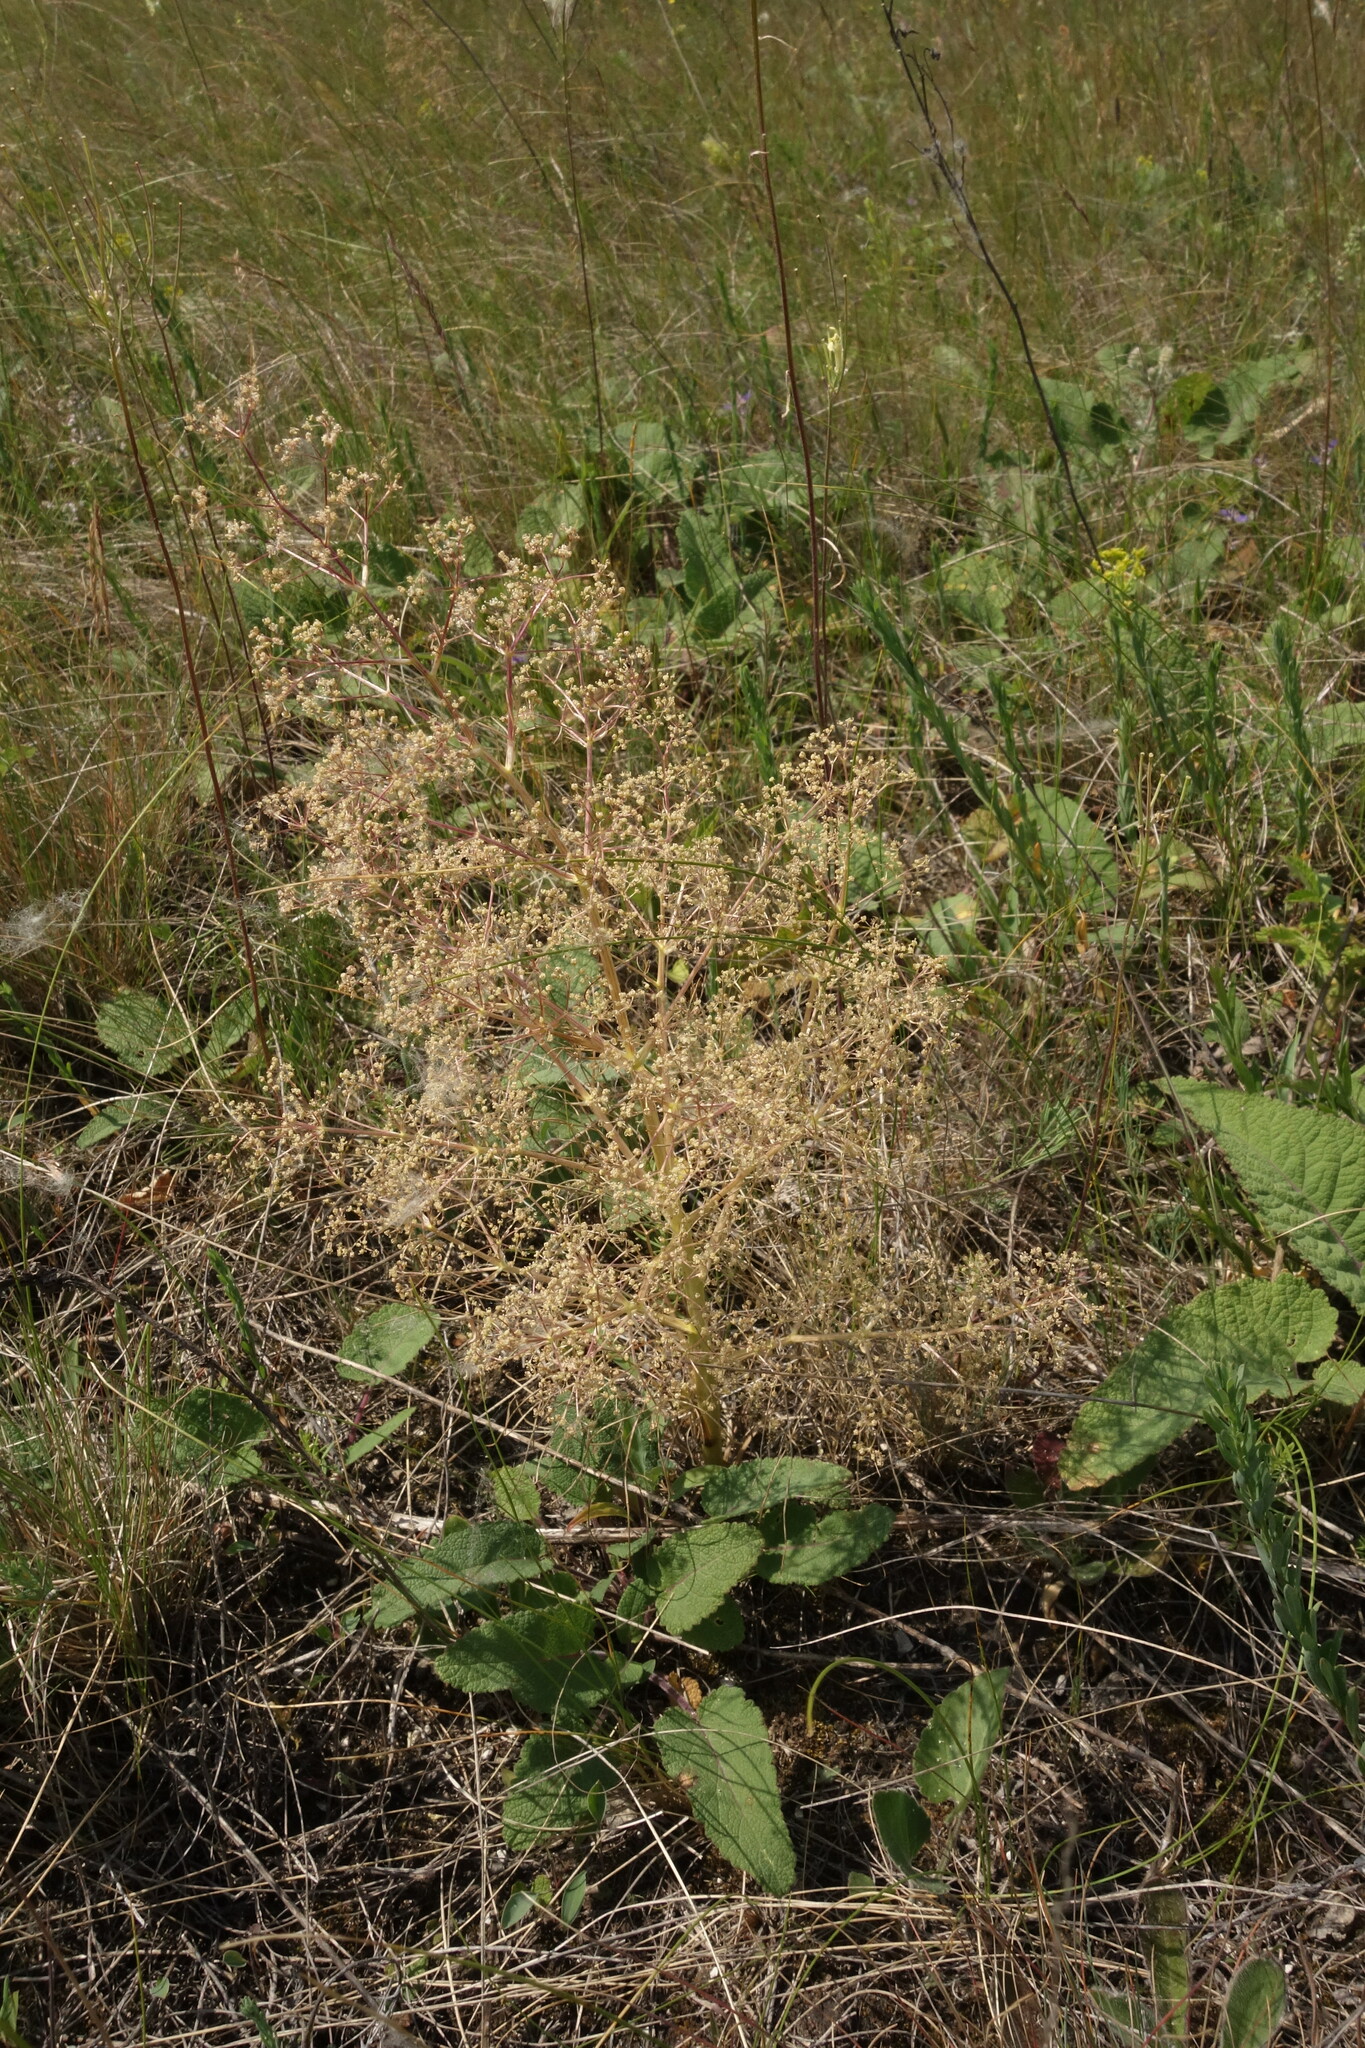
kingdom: Plantae
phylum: Tracheophyta
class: Magnoliopsida
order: Apiales
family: Apiaceae
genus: Trinia
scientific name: Trinia multicaulis
